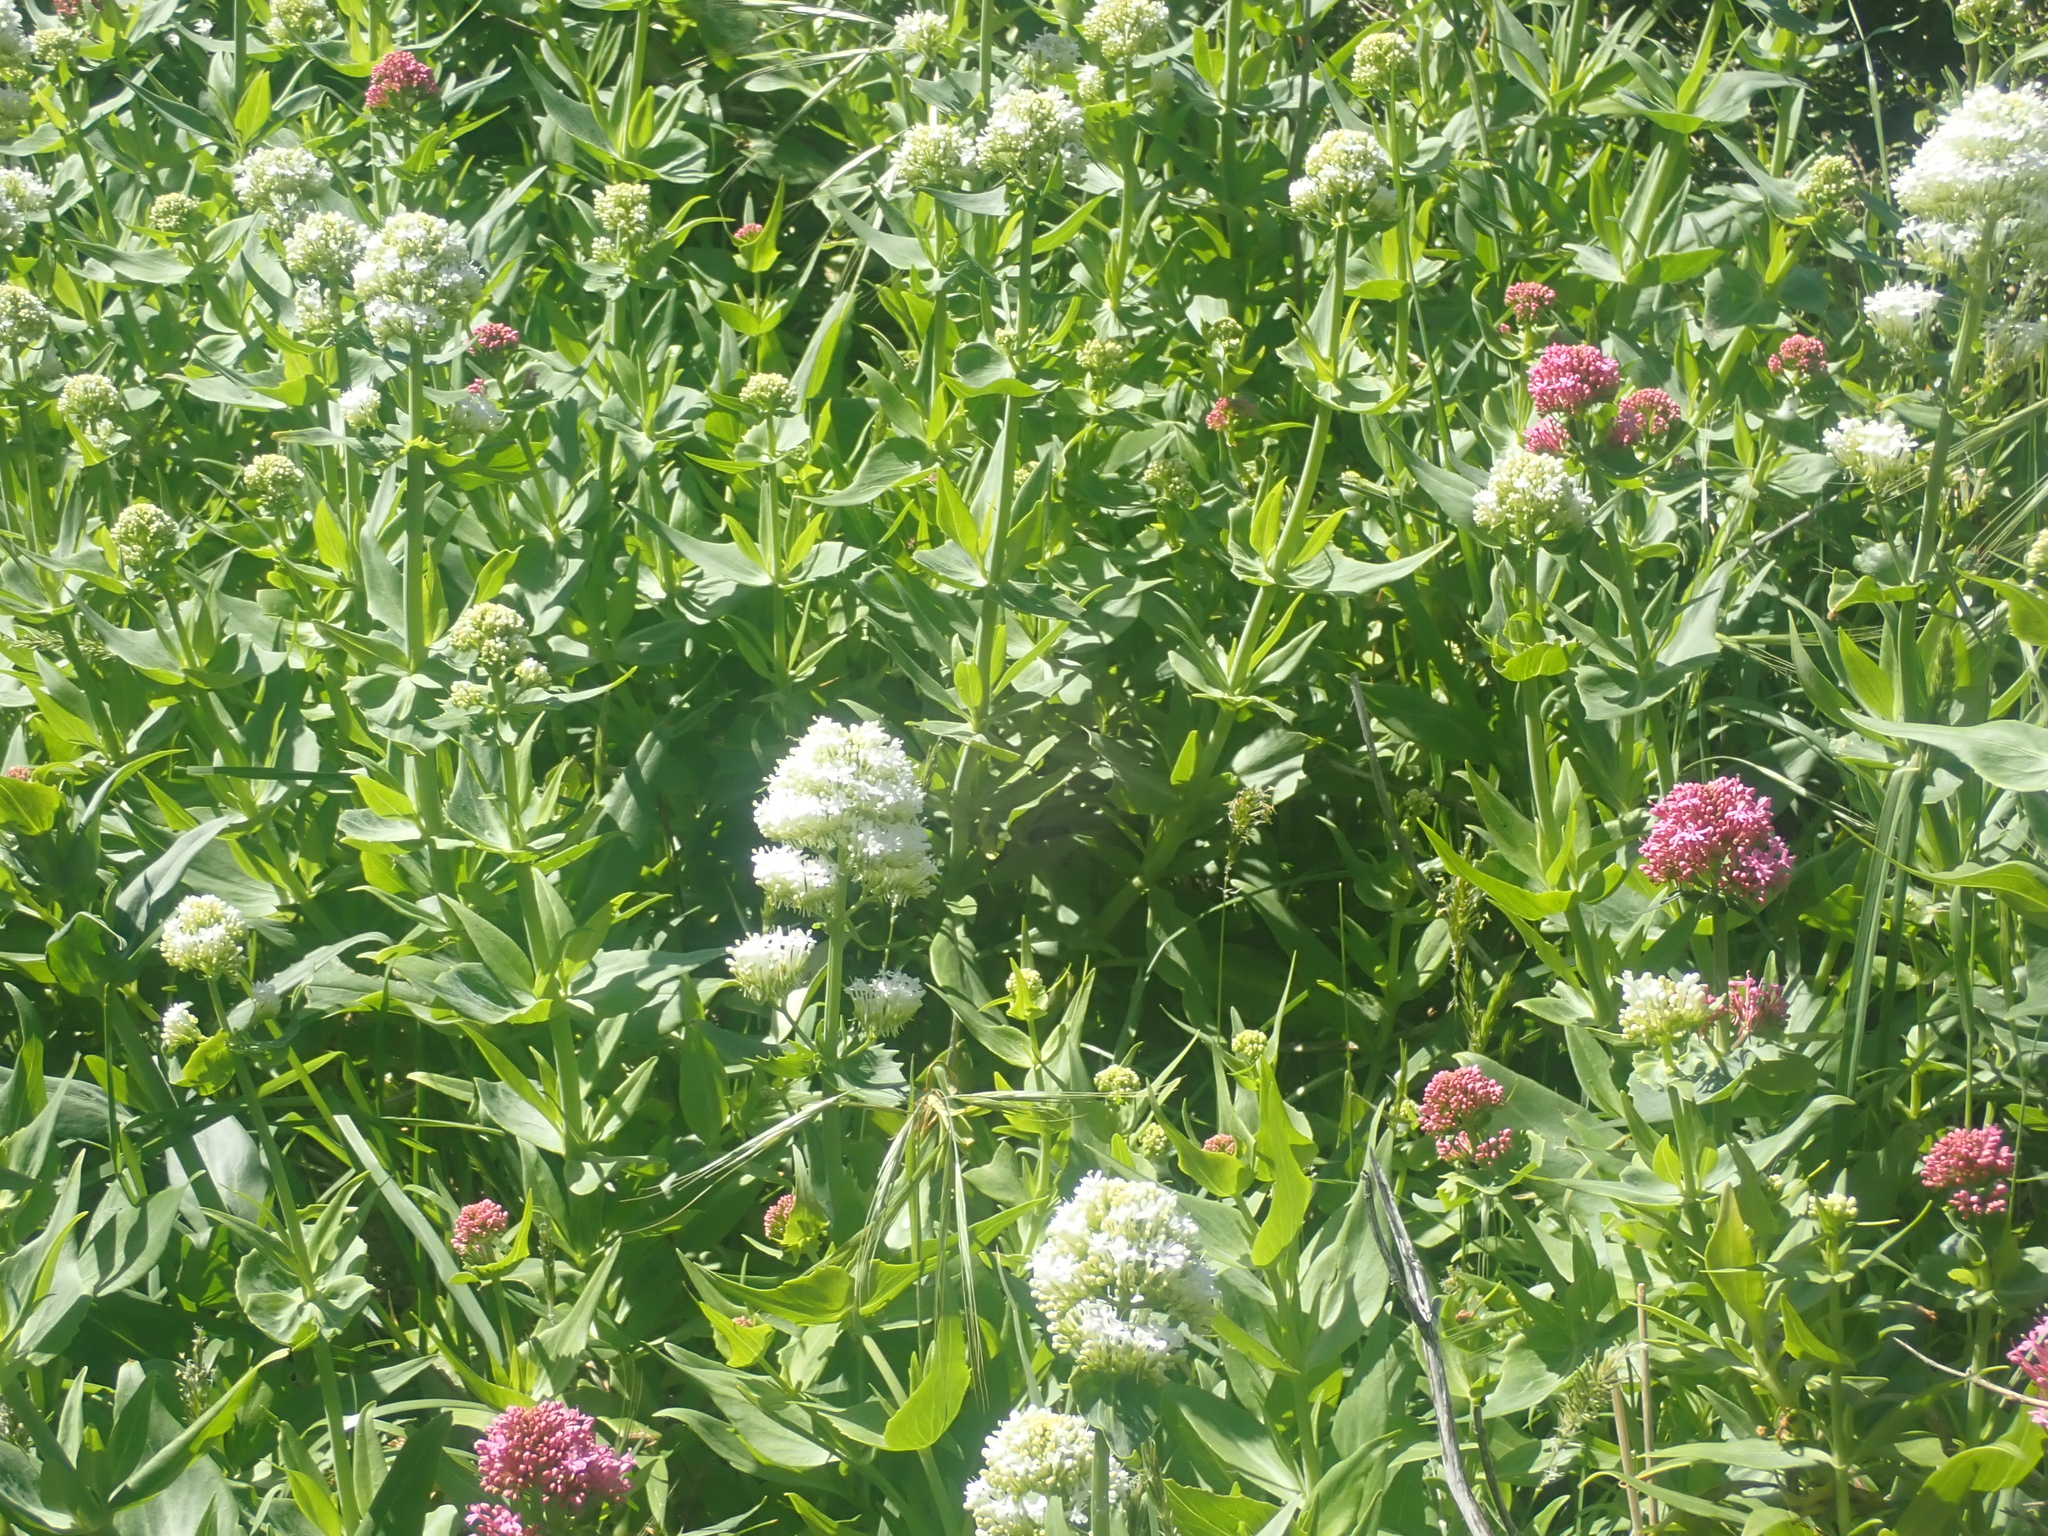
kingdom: Plantae
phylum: Tracheophyta
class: Magnoliopsida
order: Dipsacales
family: Caprifoliaceae
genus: Centranthus
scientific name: Centranthus ruber
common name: Red valerian
